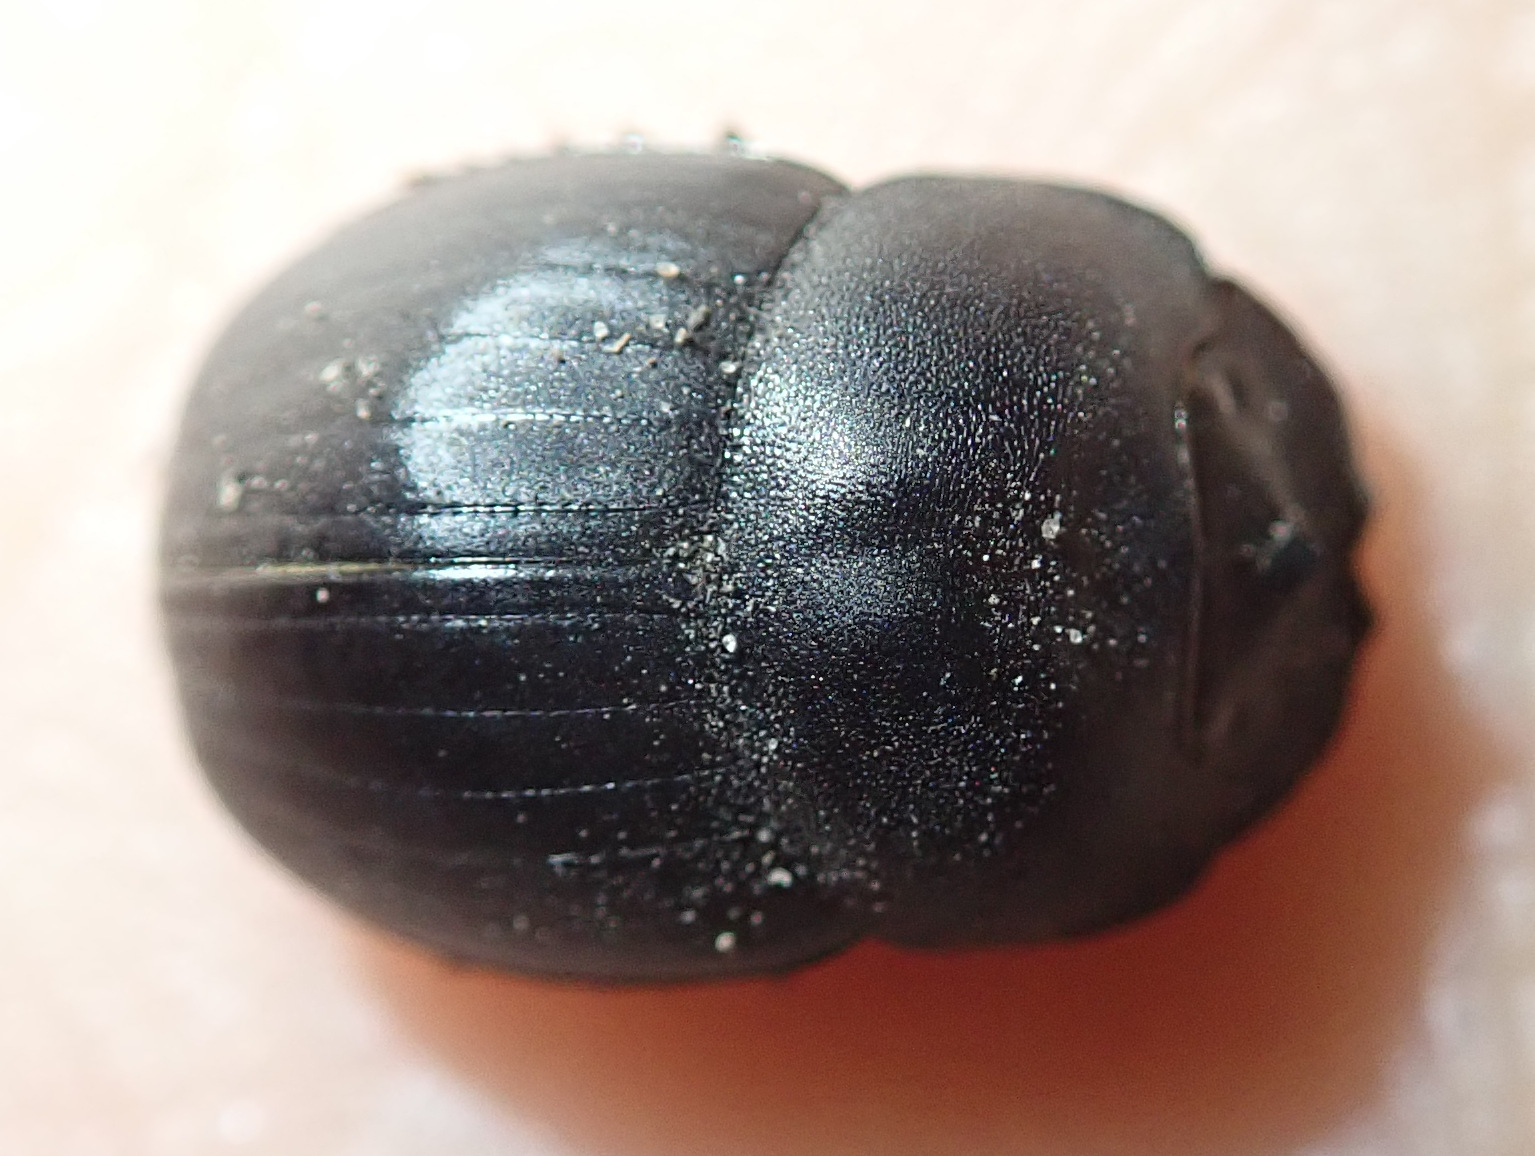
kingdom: Animalia
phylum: Arthropoda
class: Insecta
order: Coleoptera
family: Scarabaeidae
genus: Metacatharsius
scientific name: Metacatharsius opacus
